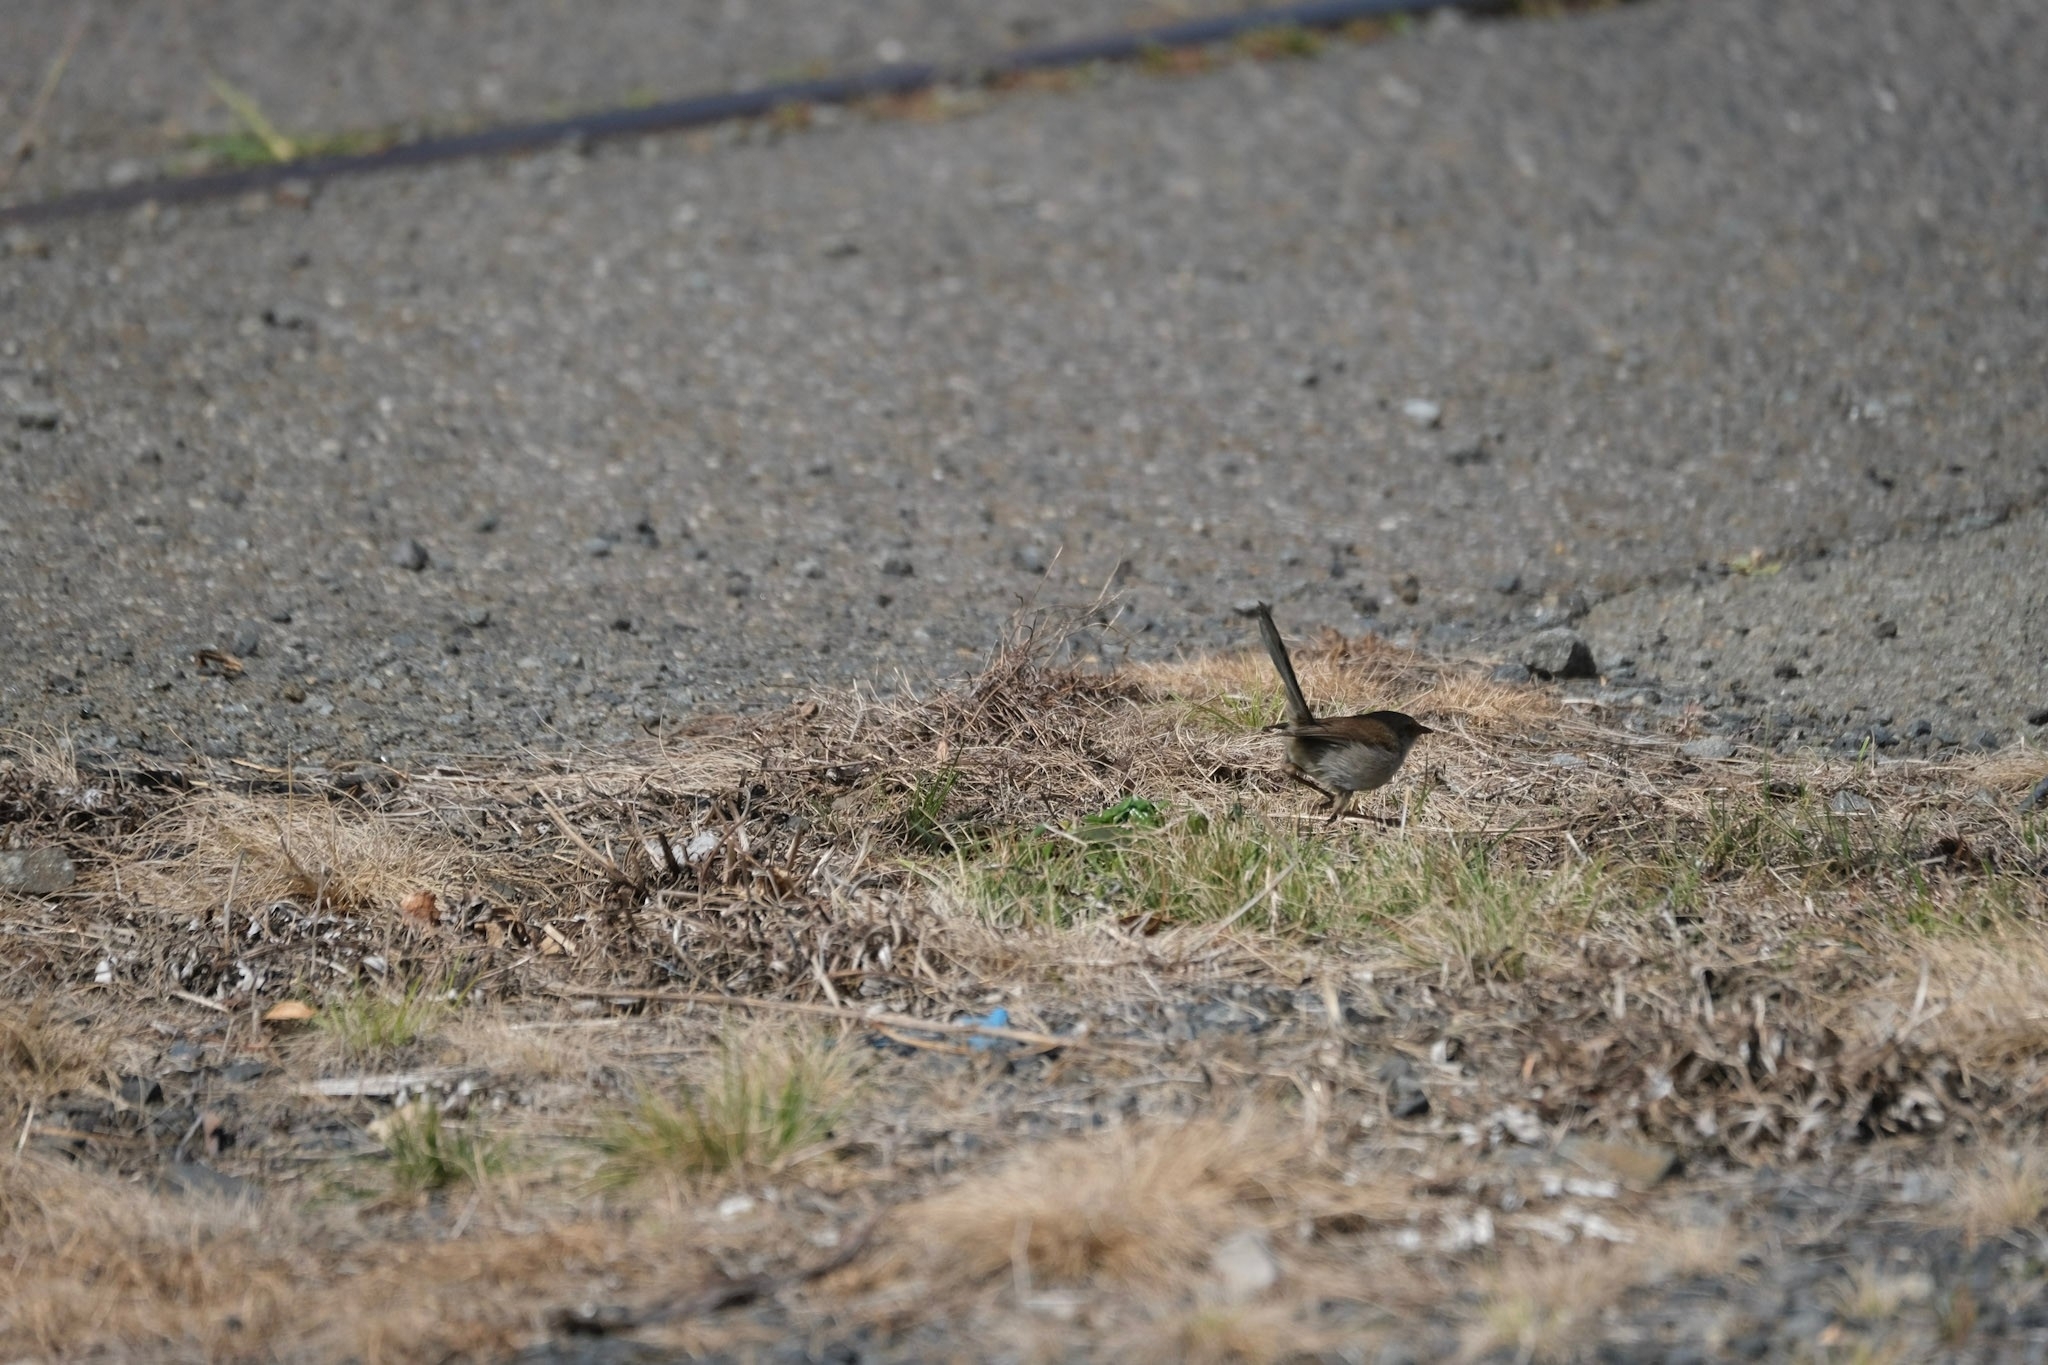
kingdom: Animalia
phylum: Chordata
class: Aves
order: Passeriformes
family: Maluridae
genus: Malurus
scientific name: Malurus cyaneus
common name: Superb fairywren
